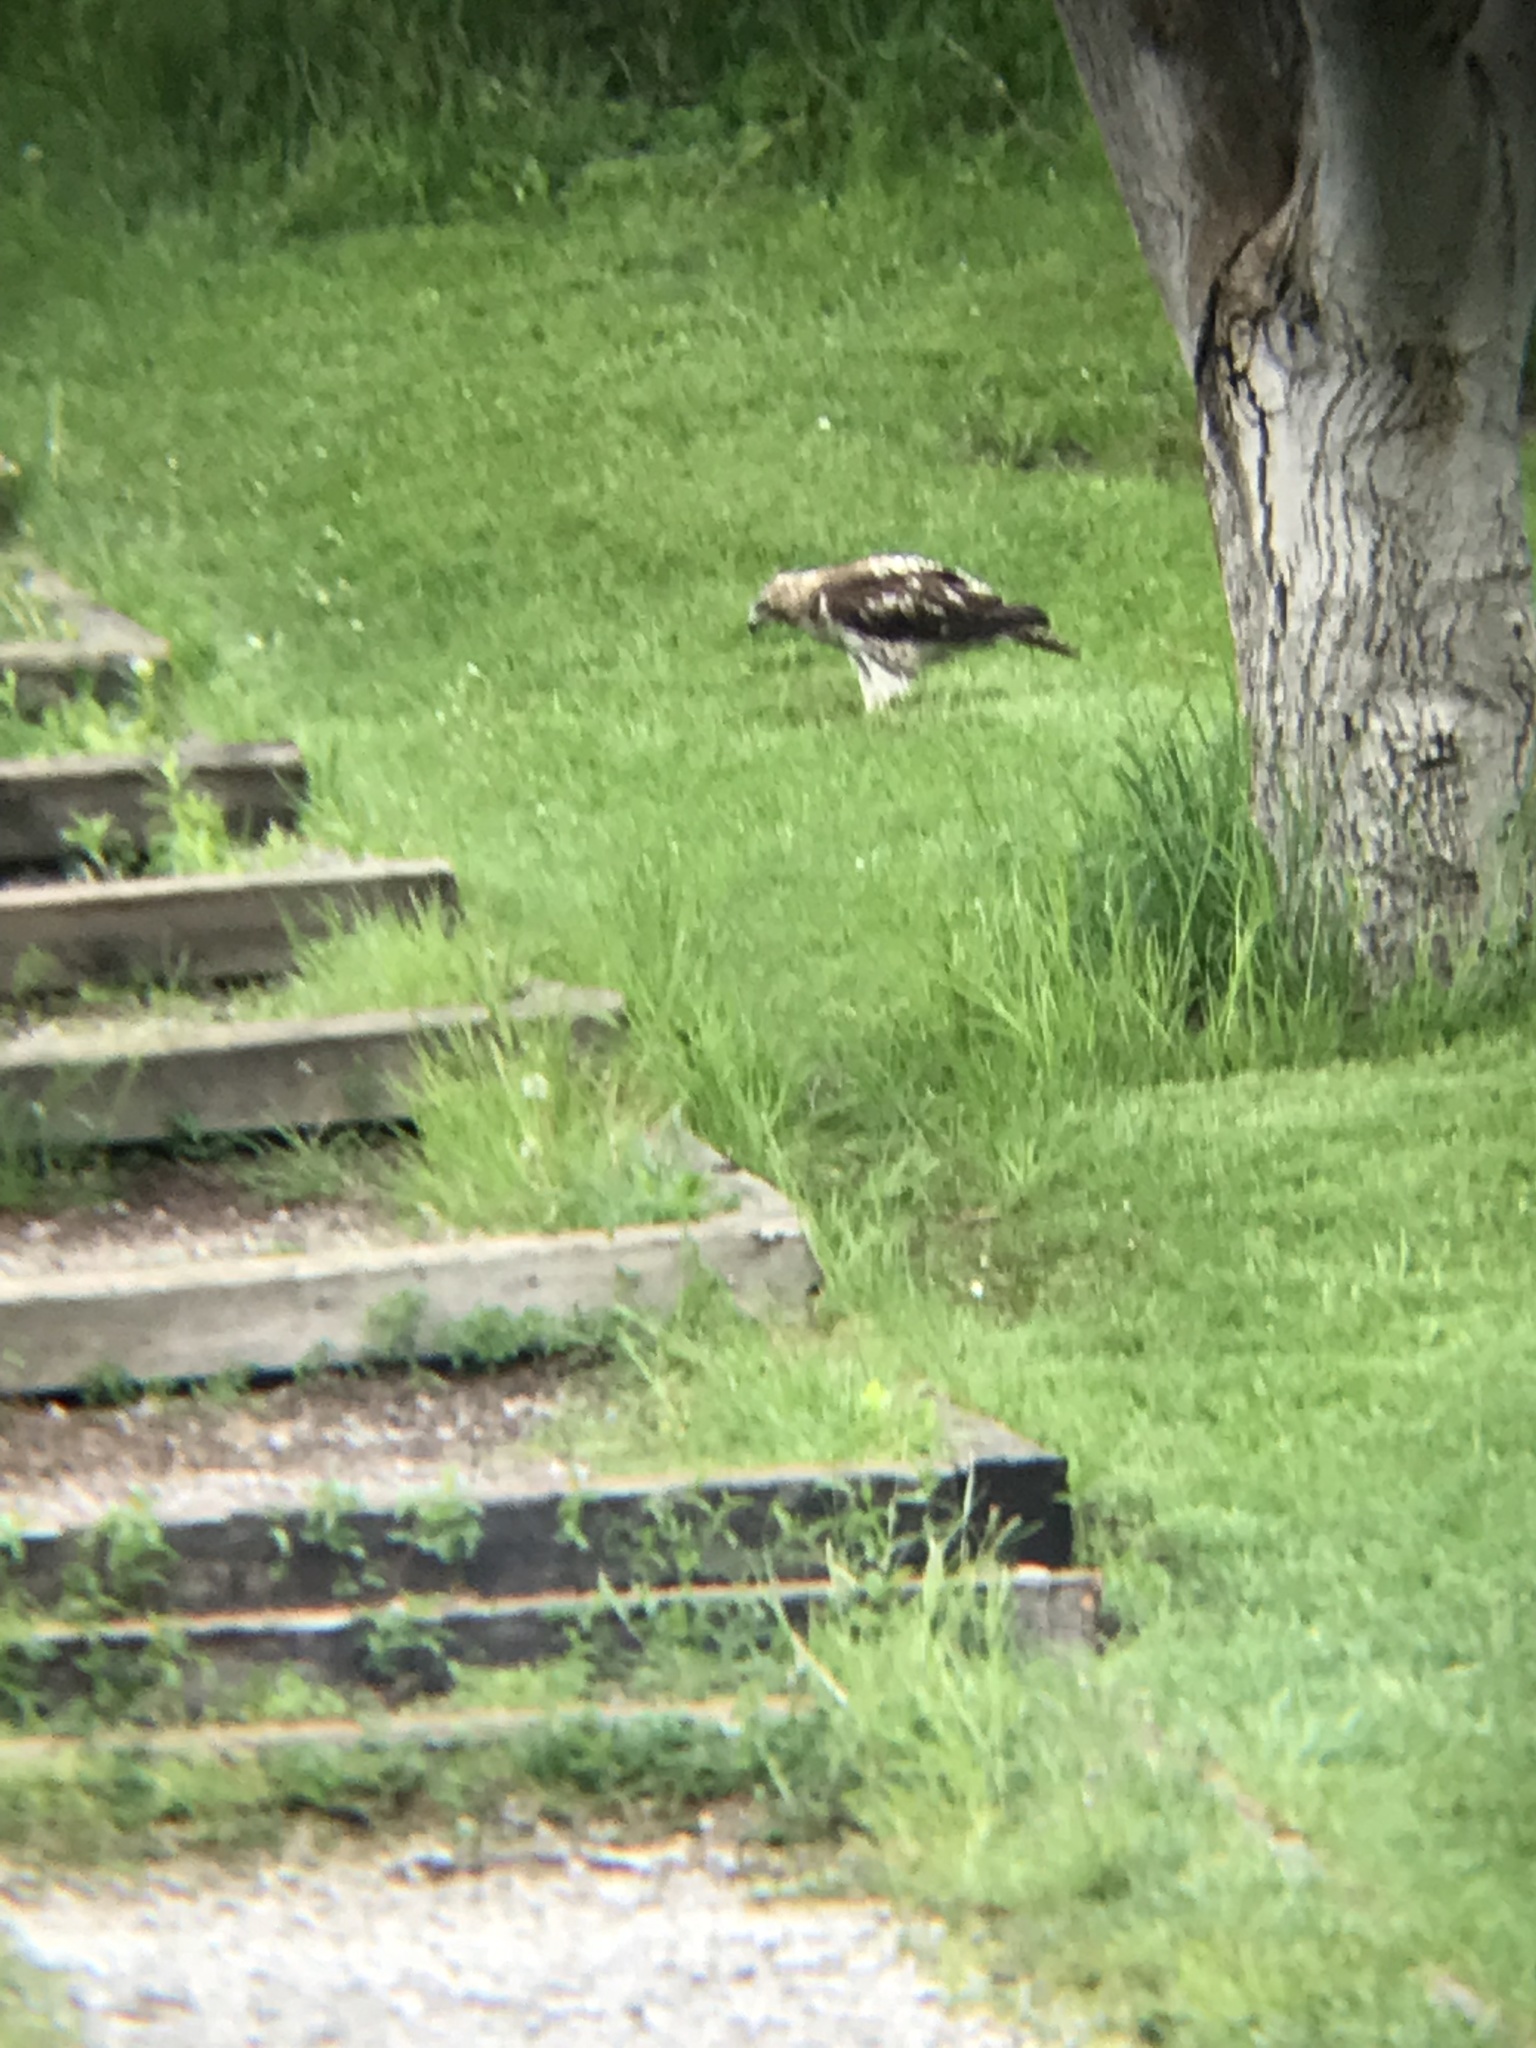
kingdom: Animalia
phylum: Chordata
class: Aves
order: Accipitriformes
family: Accipitridae
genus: Buteo
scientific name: Buteo jamaicensis
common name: Red-tailed hawk
